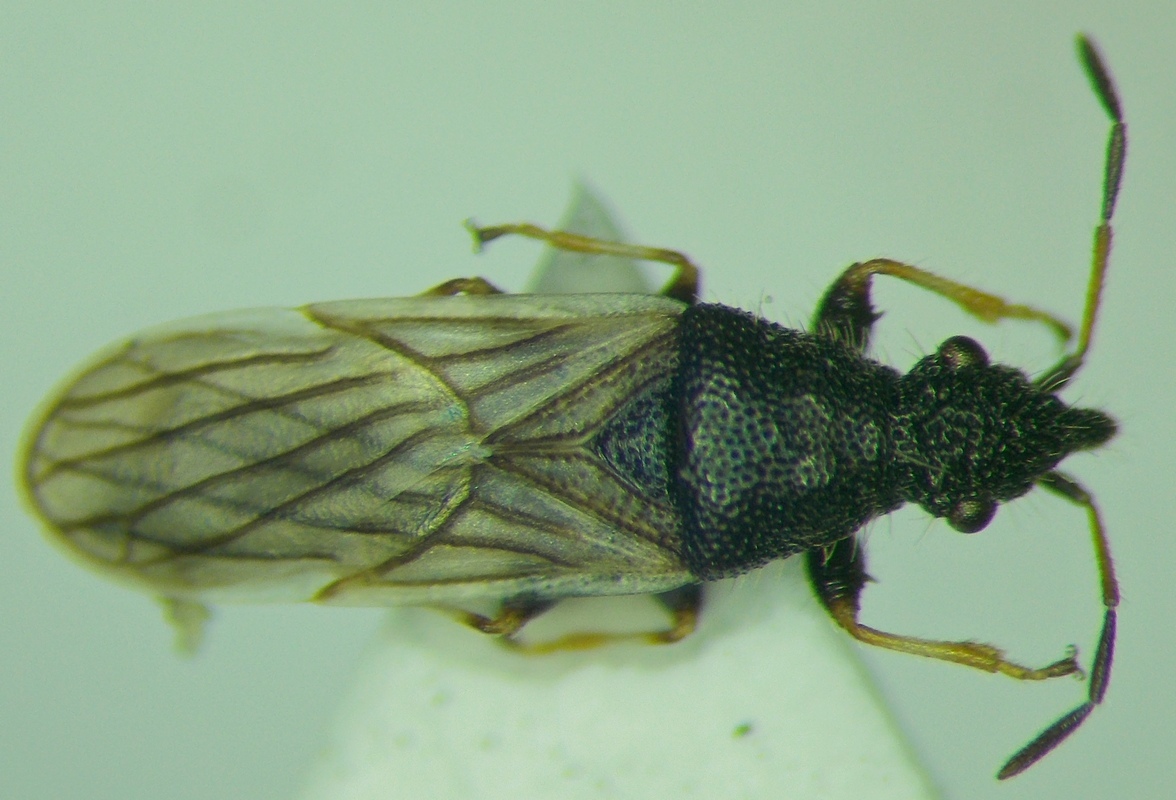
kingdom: Animalia
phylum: Arthropoda
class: Insecta
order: Hemiptera
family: Oxycarenidae
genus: Microplax
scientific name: Microplax interrupta
